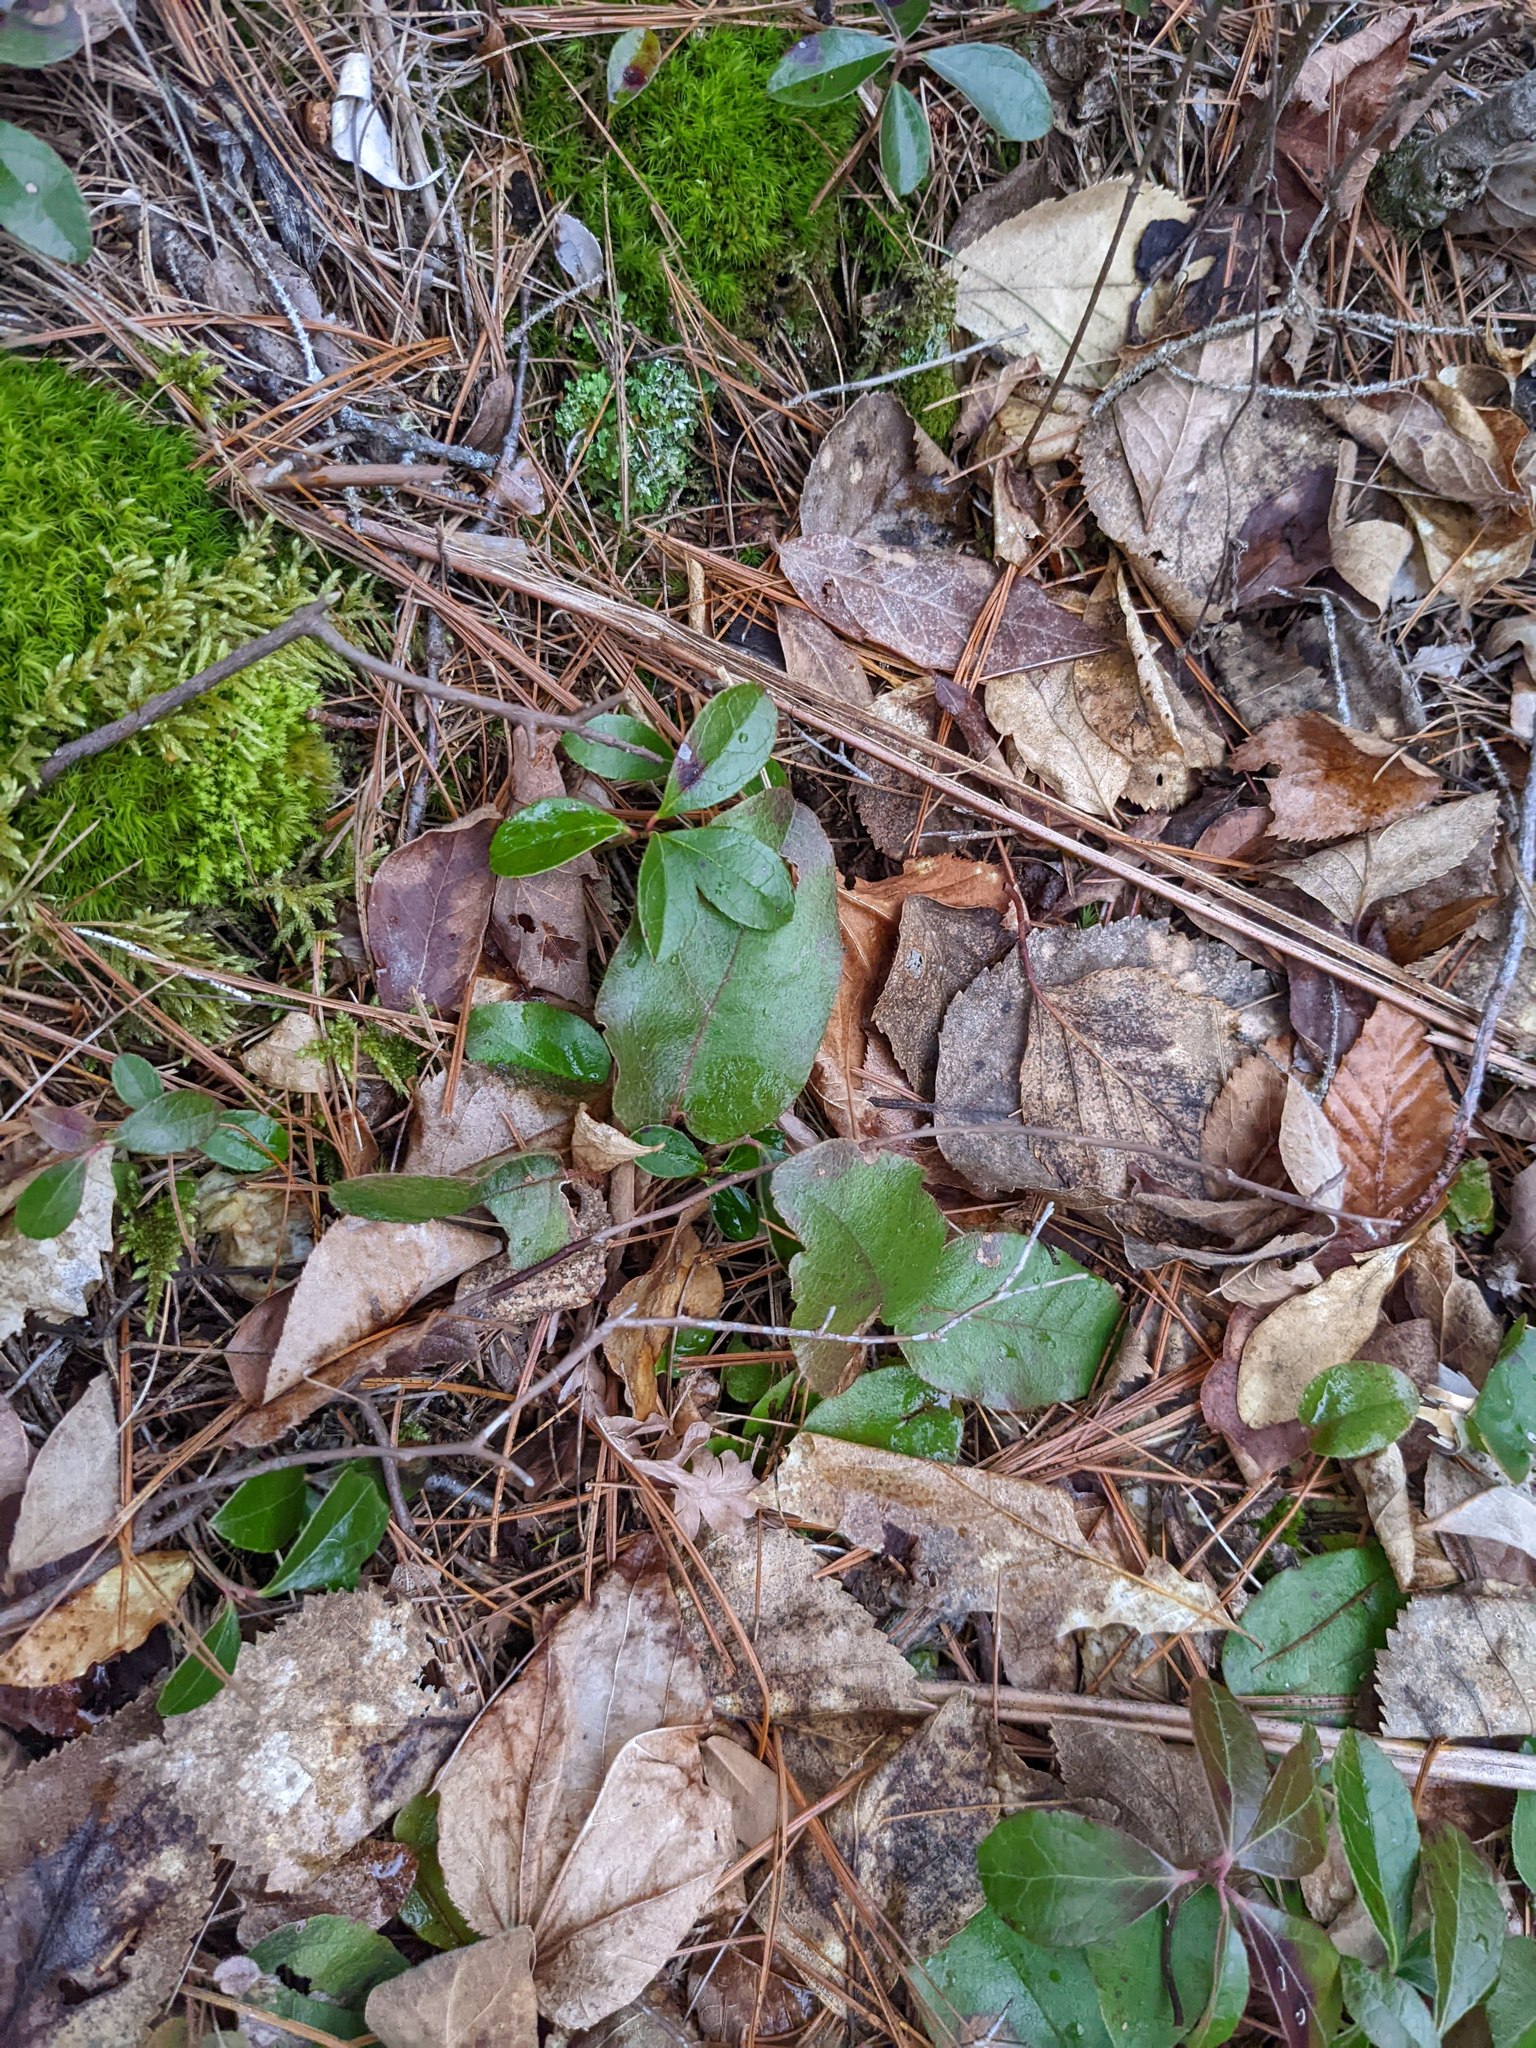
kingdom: Plantae
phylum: Tracheophyta
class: Magnoliopsida
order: Ericales
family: Ericaceae
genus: Gaultheria
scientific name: Gaultheria procumbens
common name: Checkerberry
